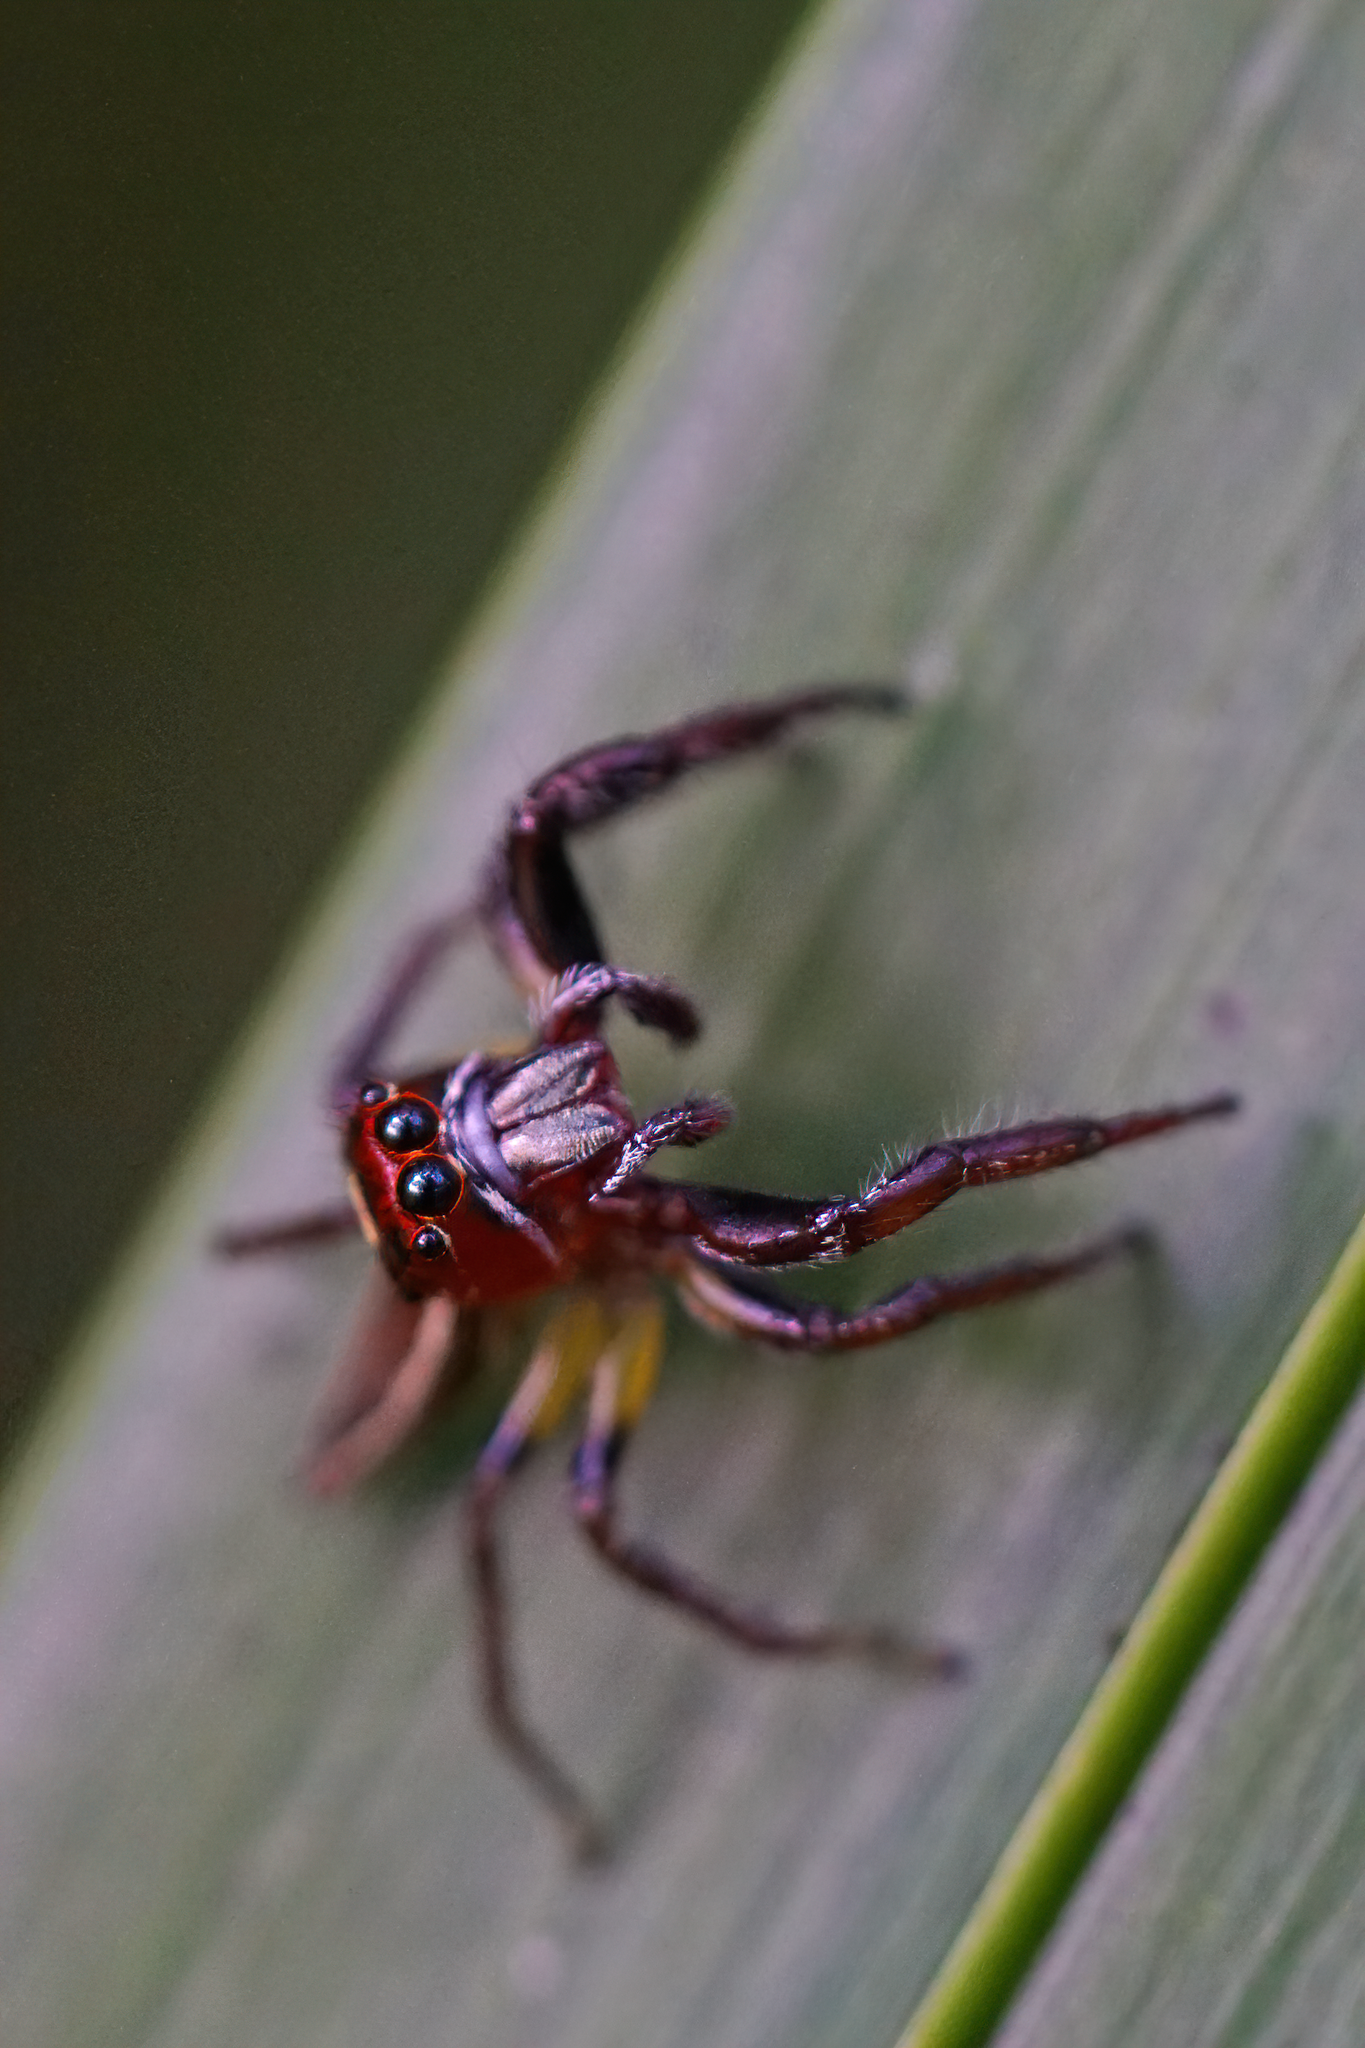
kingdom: Animalia
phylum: Arthropoda
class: Arachnida
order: Araneae
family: Salticidae
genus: Colonus
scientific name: Colonus sylvanus
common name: Jumping spiders
